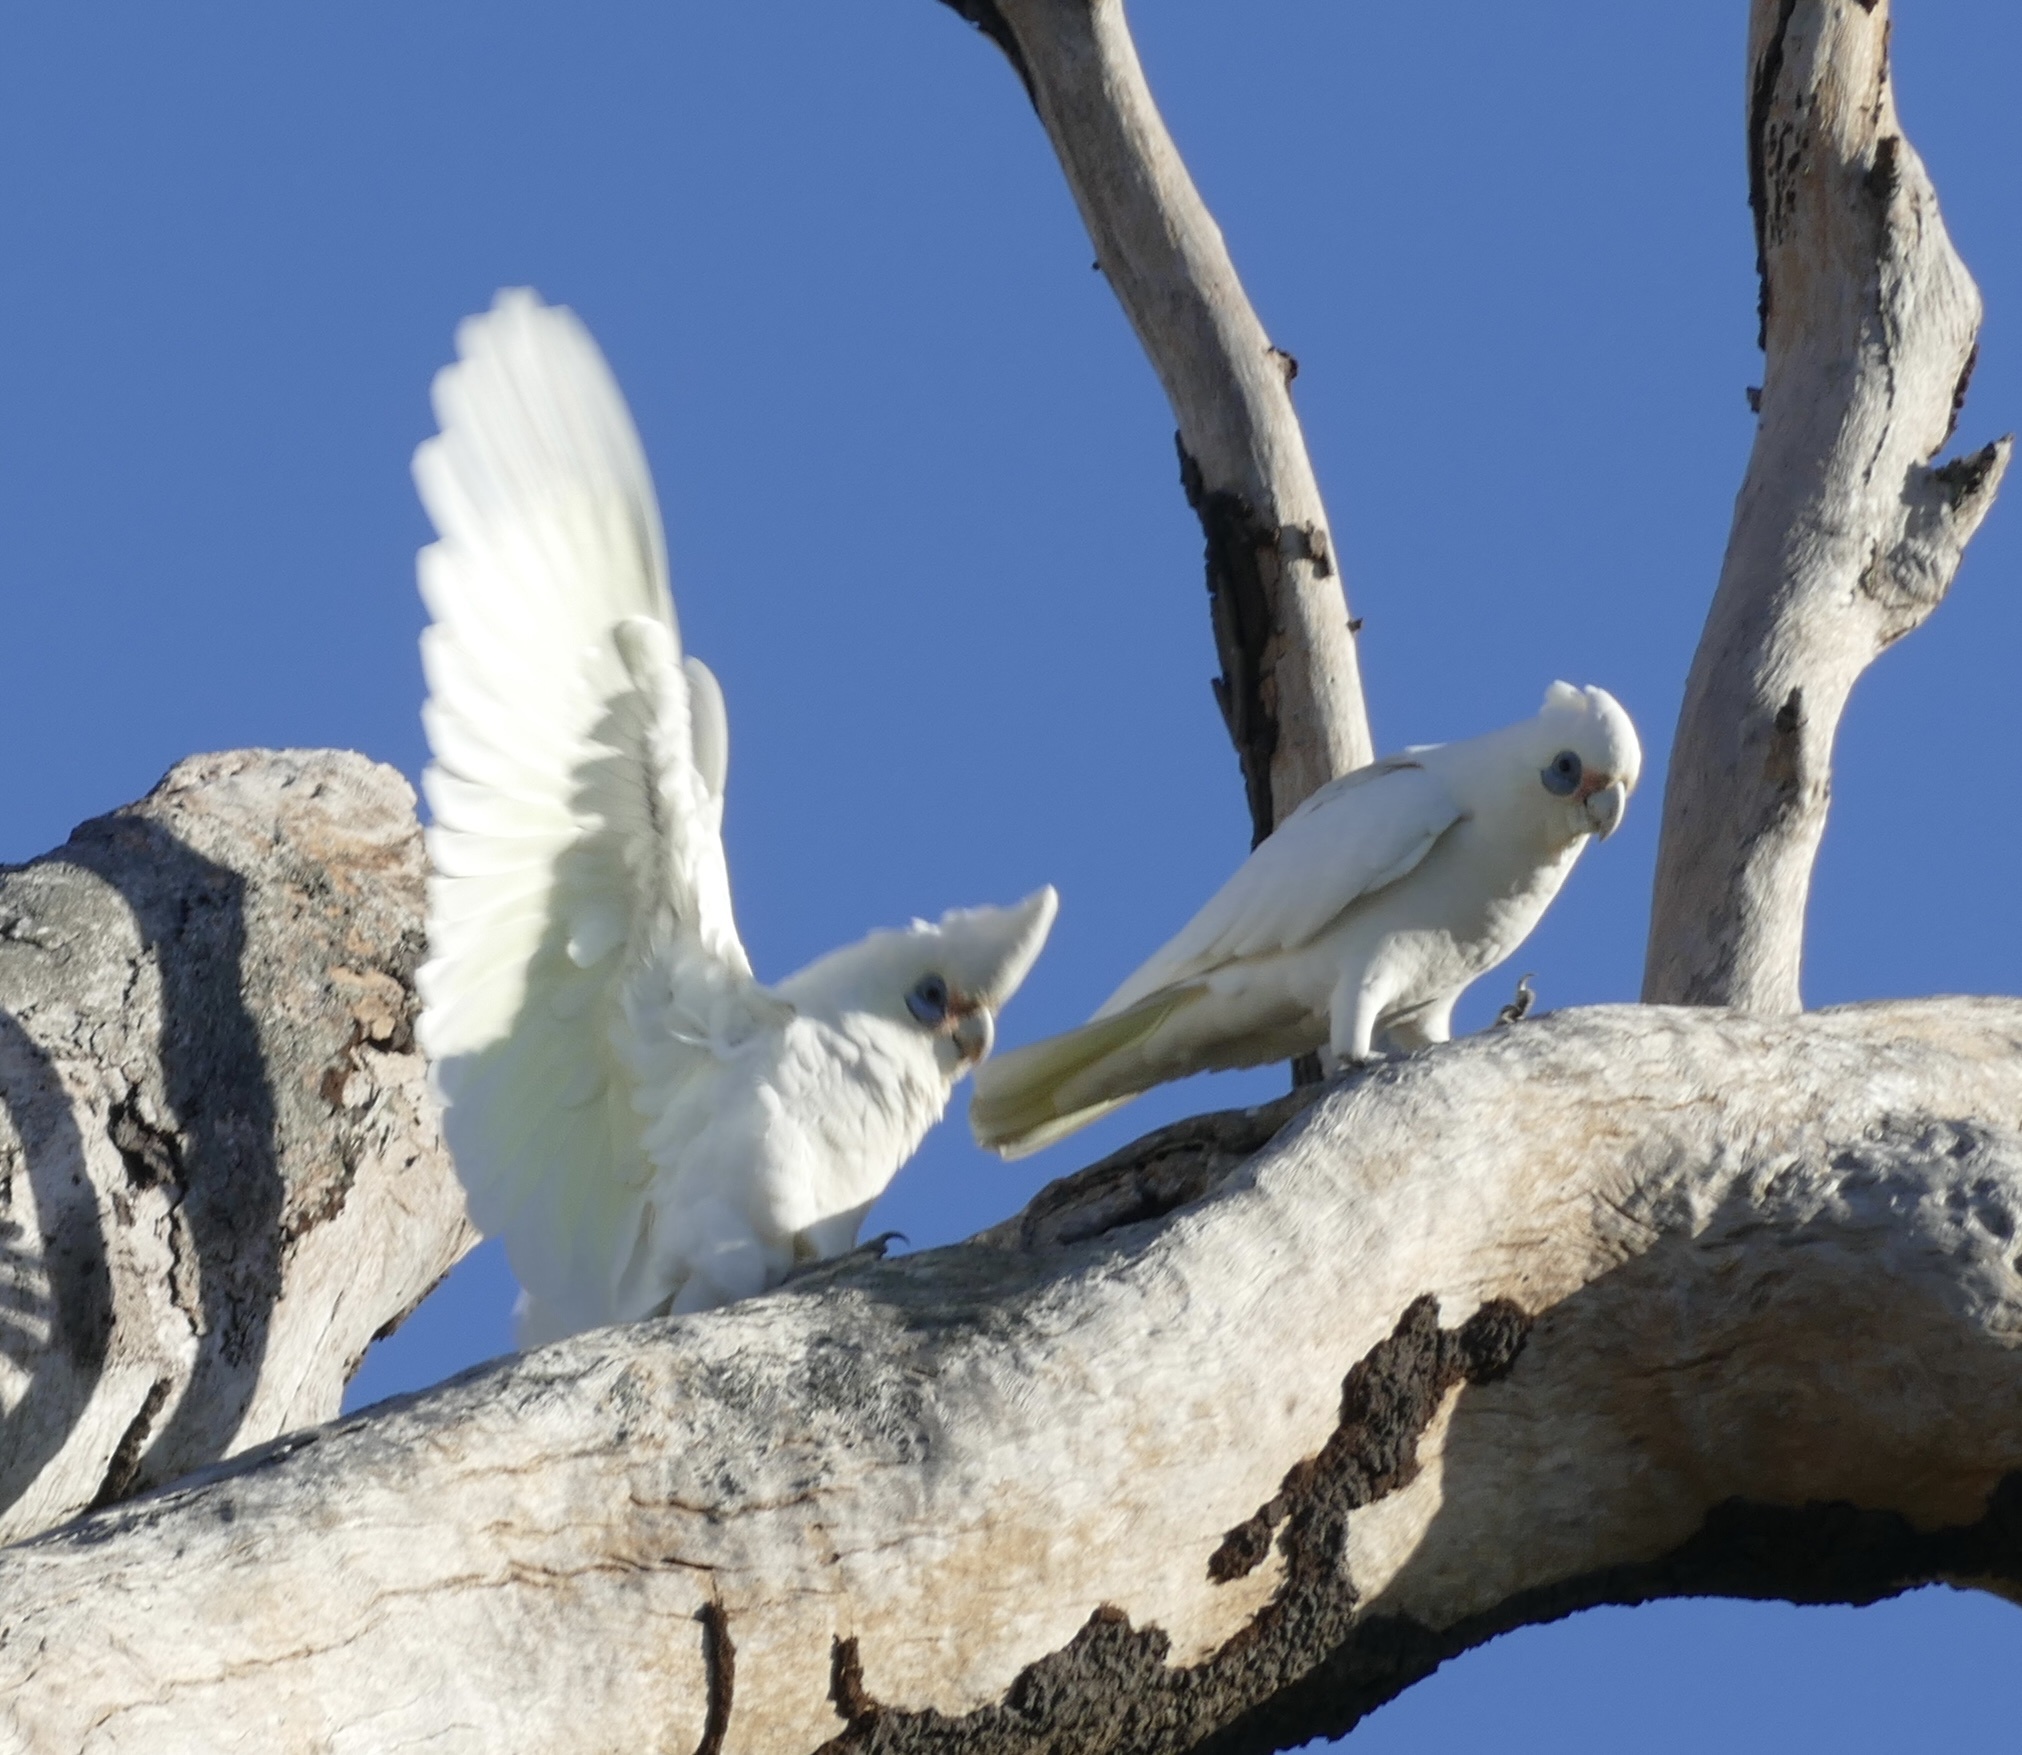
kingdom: Animalia
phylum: Chordata
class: Aves
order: Psittaciformes
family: Psittacidae
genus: Cacatua
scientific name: Cacatua sanguinea
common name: Little corella
